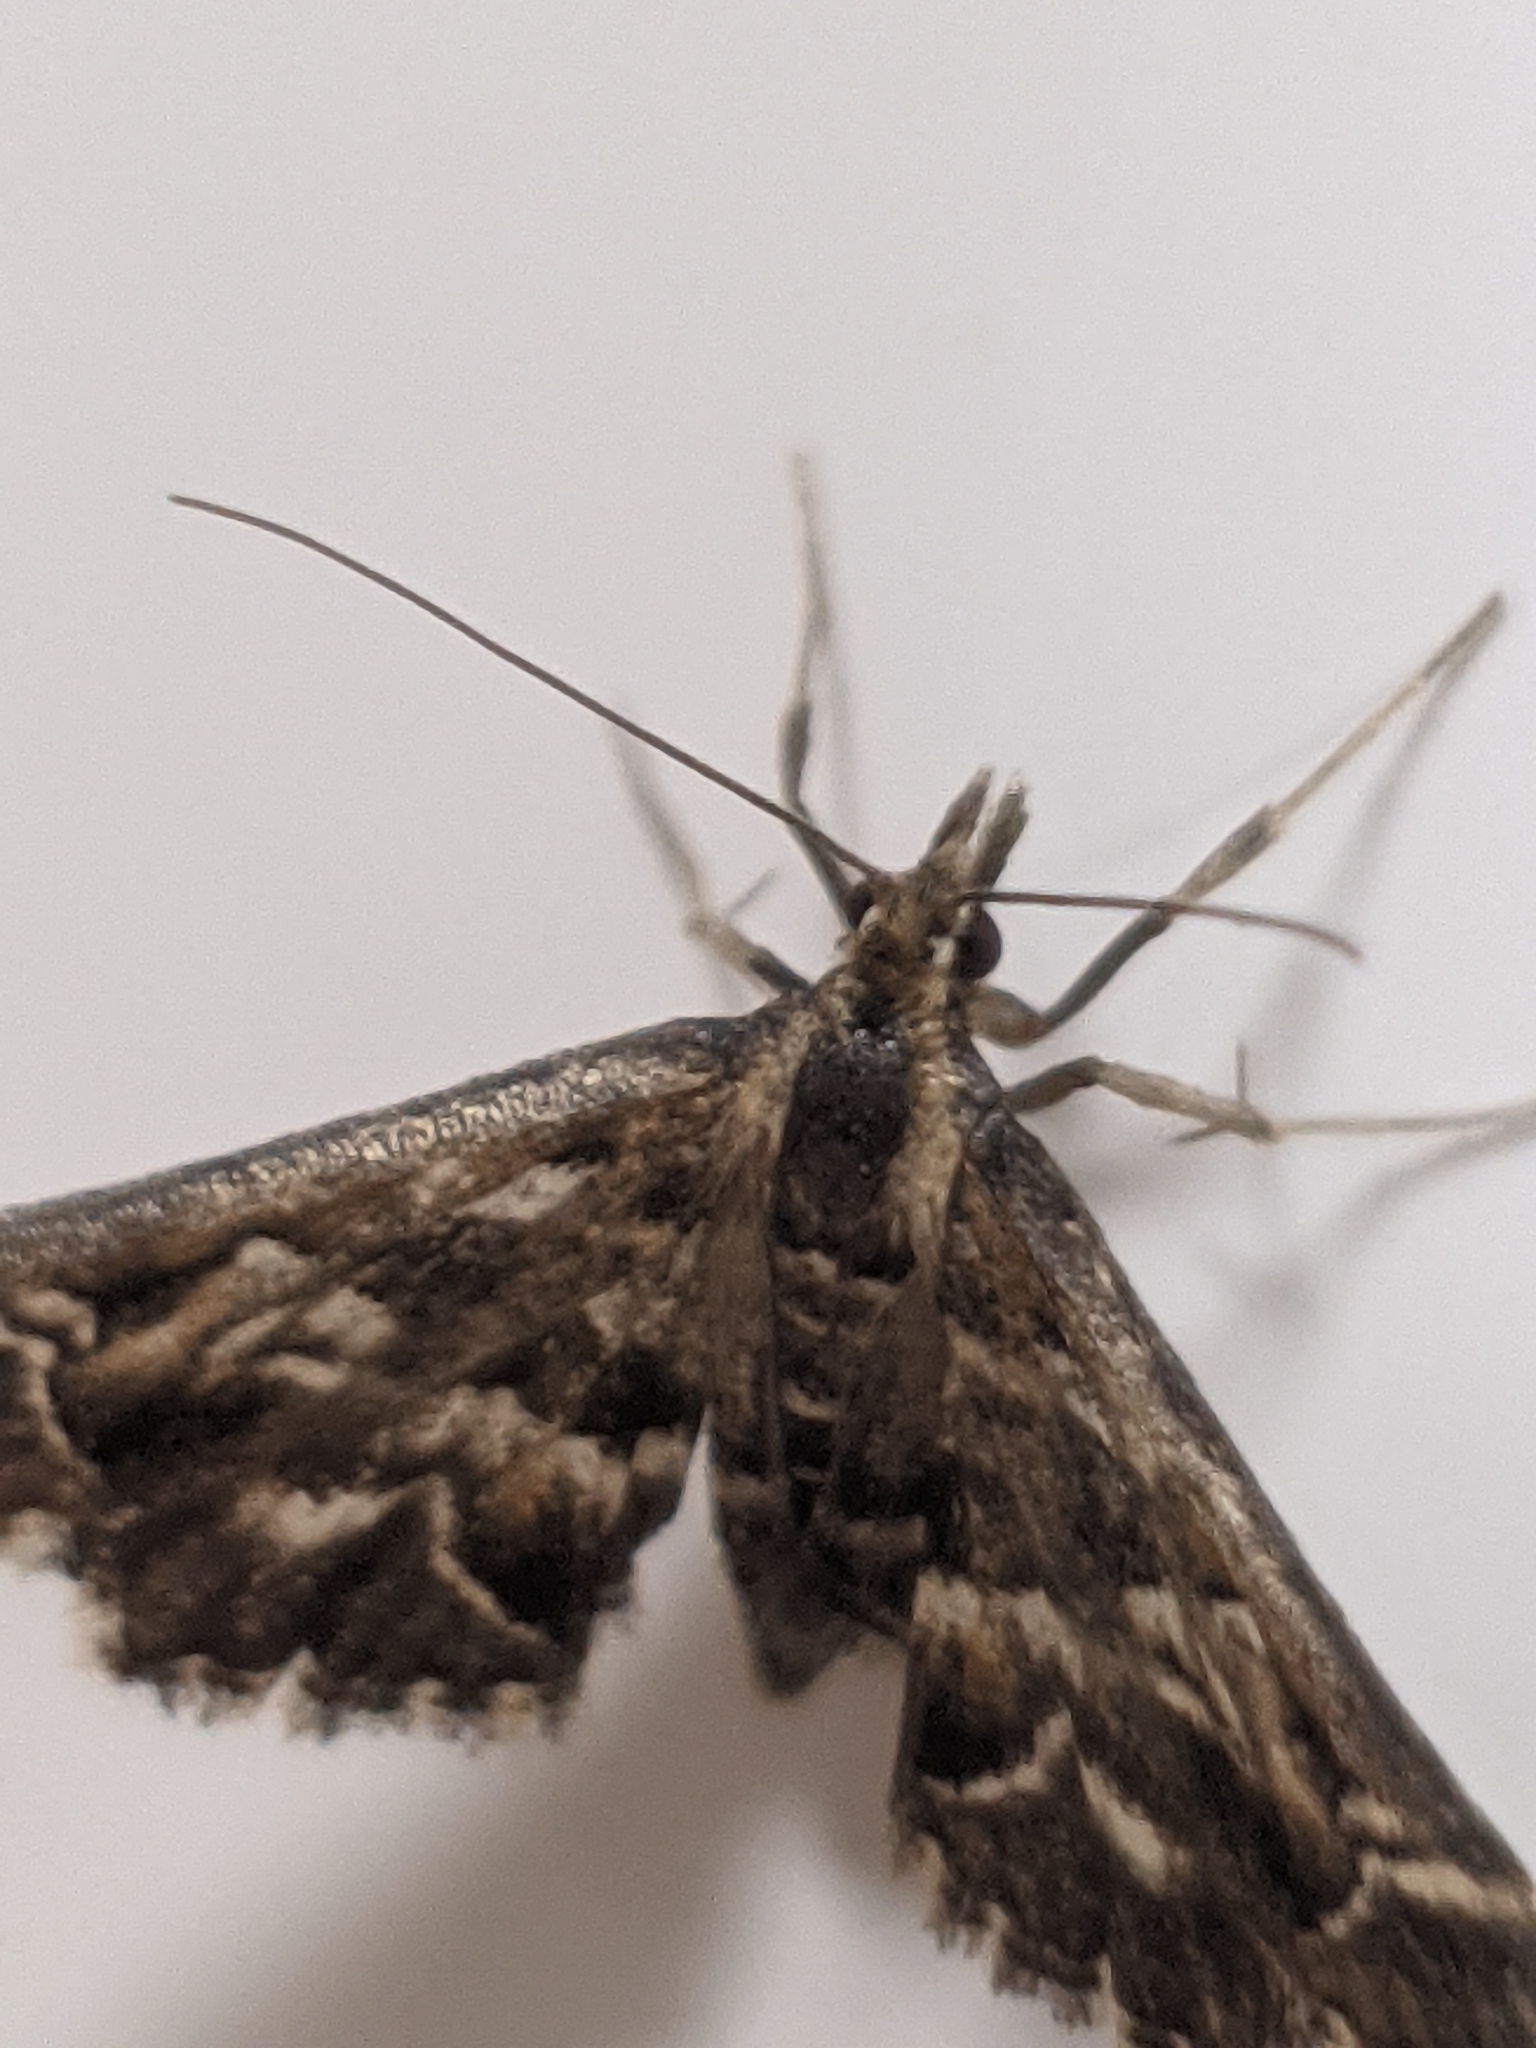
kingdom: Animalia
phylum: Arthropoda
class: Insecta
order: Lepidoptera
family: Crambidae
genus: Diasemia
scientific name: Diasemia reticularis
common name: Lettered china-mark
